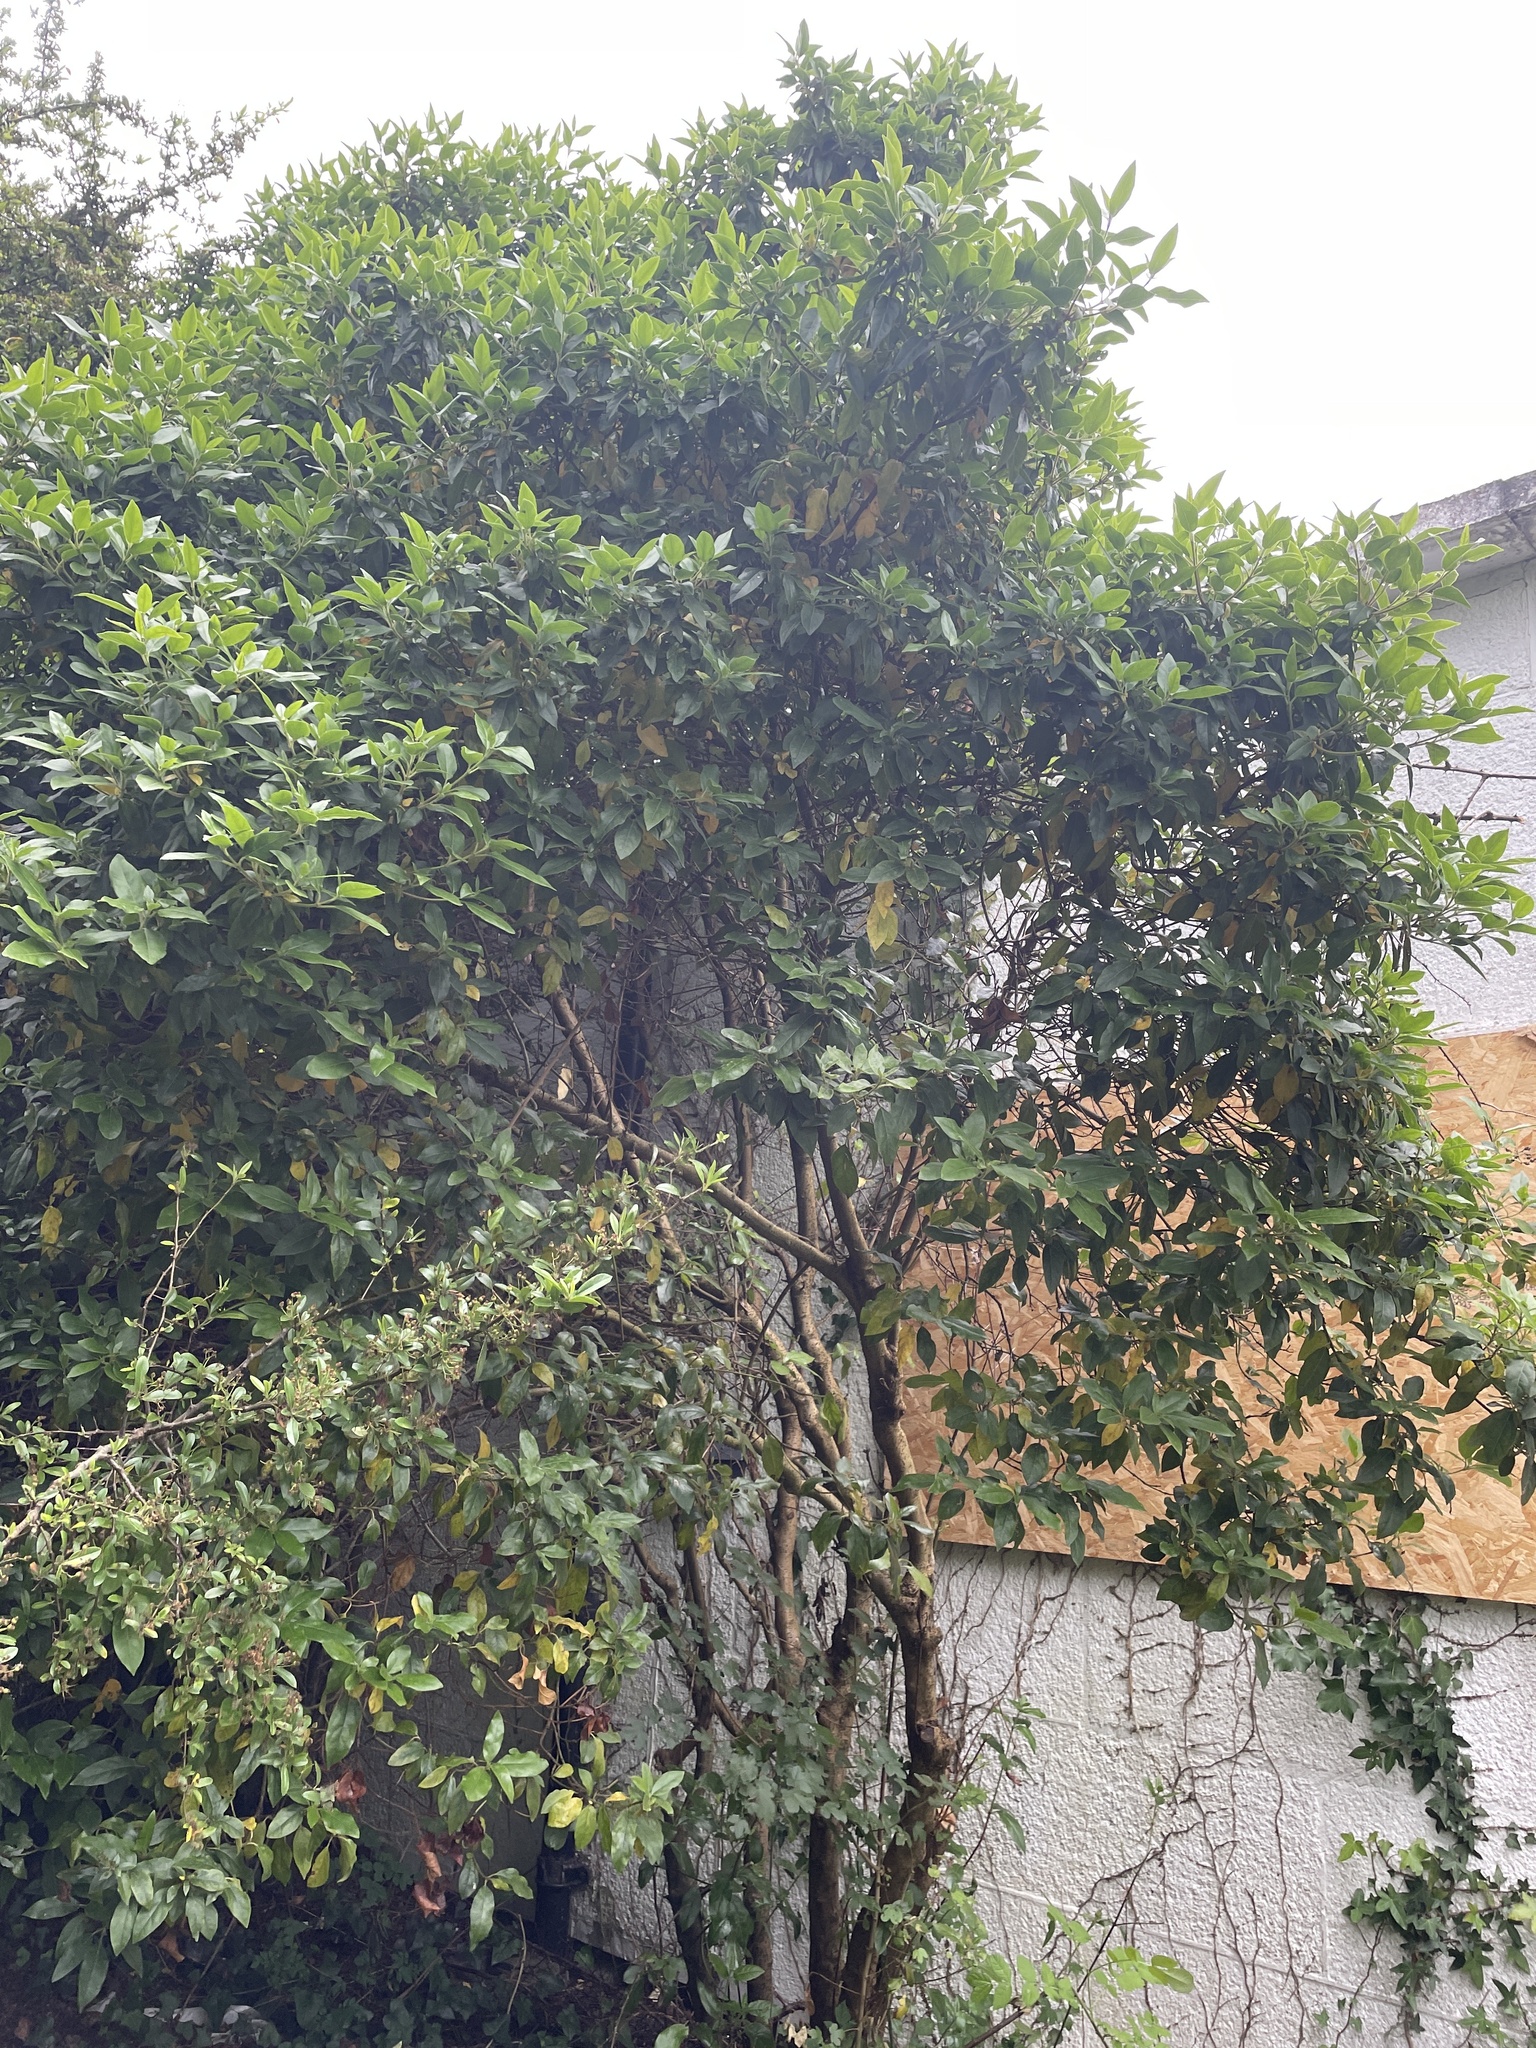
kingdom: Plantae
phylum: Tracheophyta
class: Magnoliopsida
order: Dipsacales
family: Viburnaceae
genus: Viburnum
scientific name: Viburnum tinus
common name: Laurustinus
